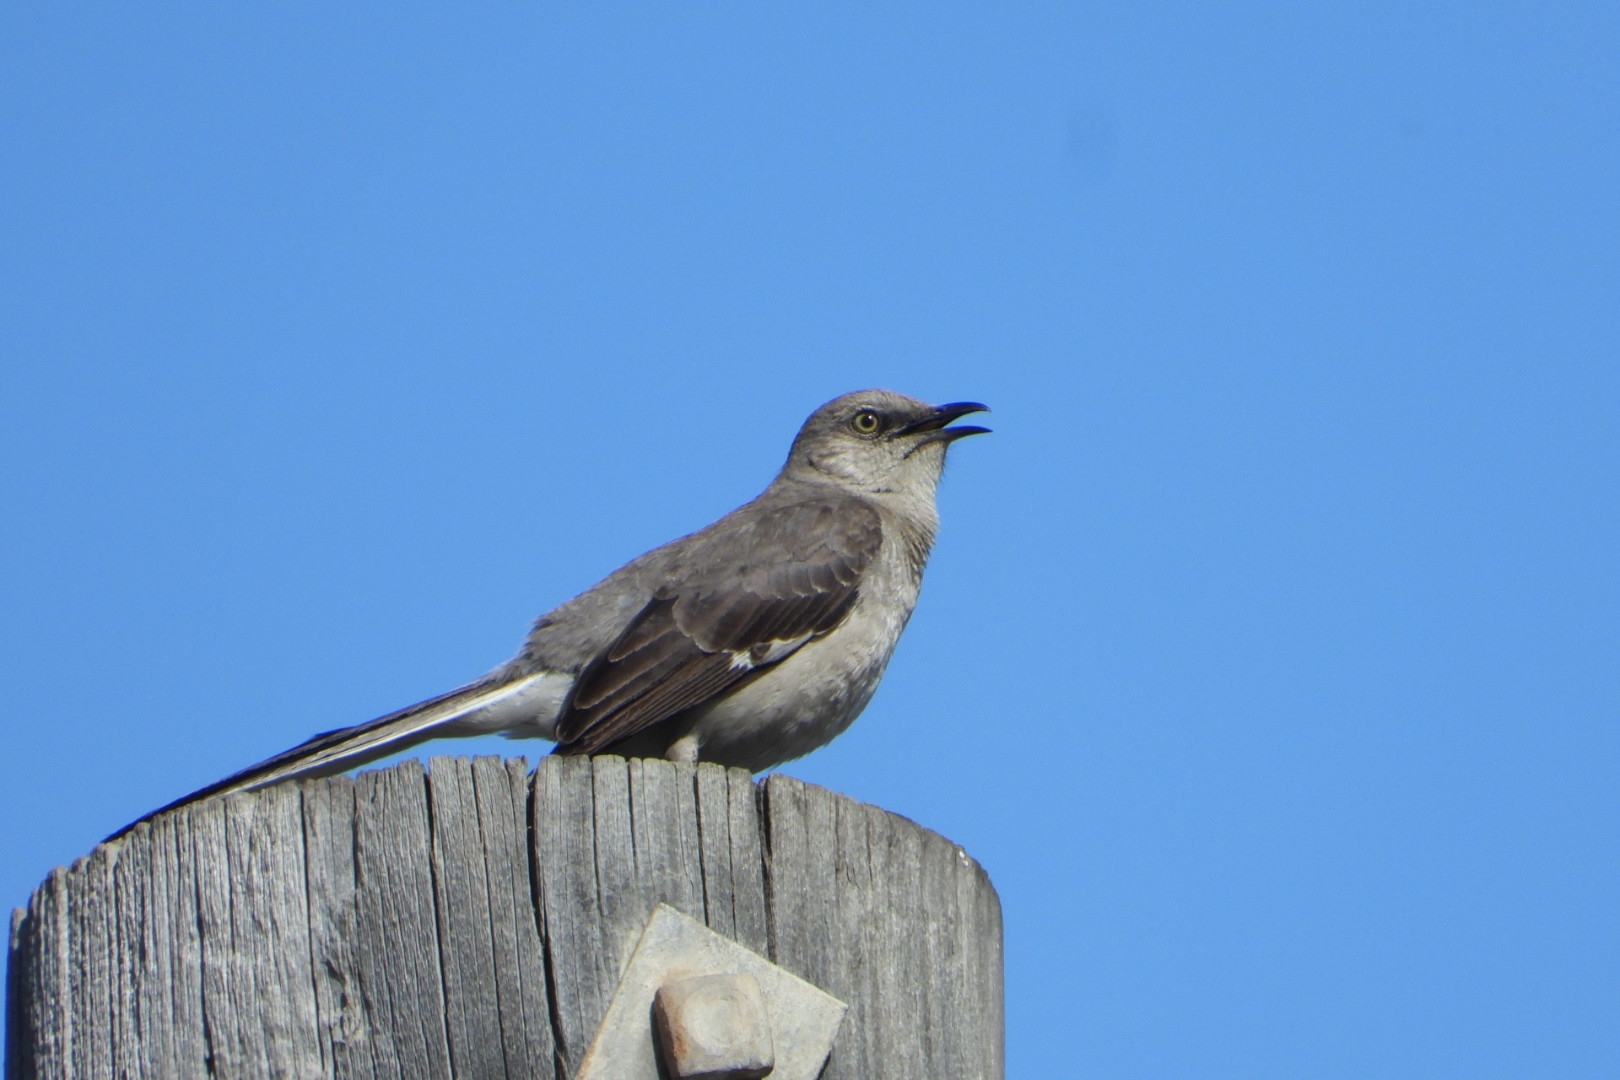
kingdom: Animalia
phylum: Chordata
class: Aves
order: Passeriformes
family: Mimidae
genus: Mimus
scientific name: Mimus polyglottos
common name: Northern mockingbird
